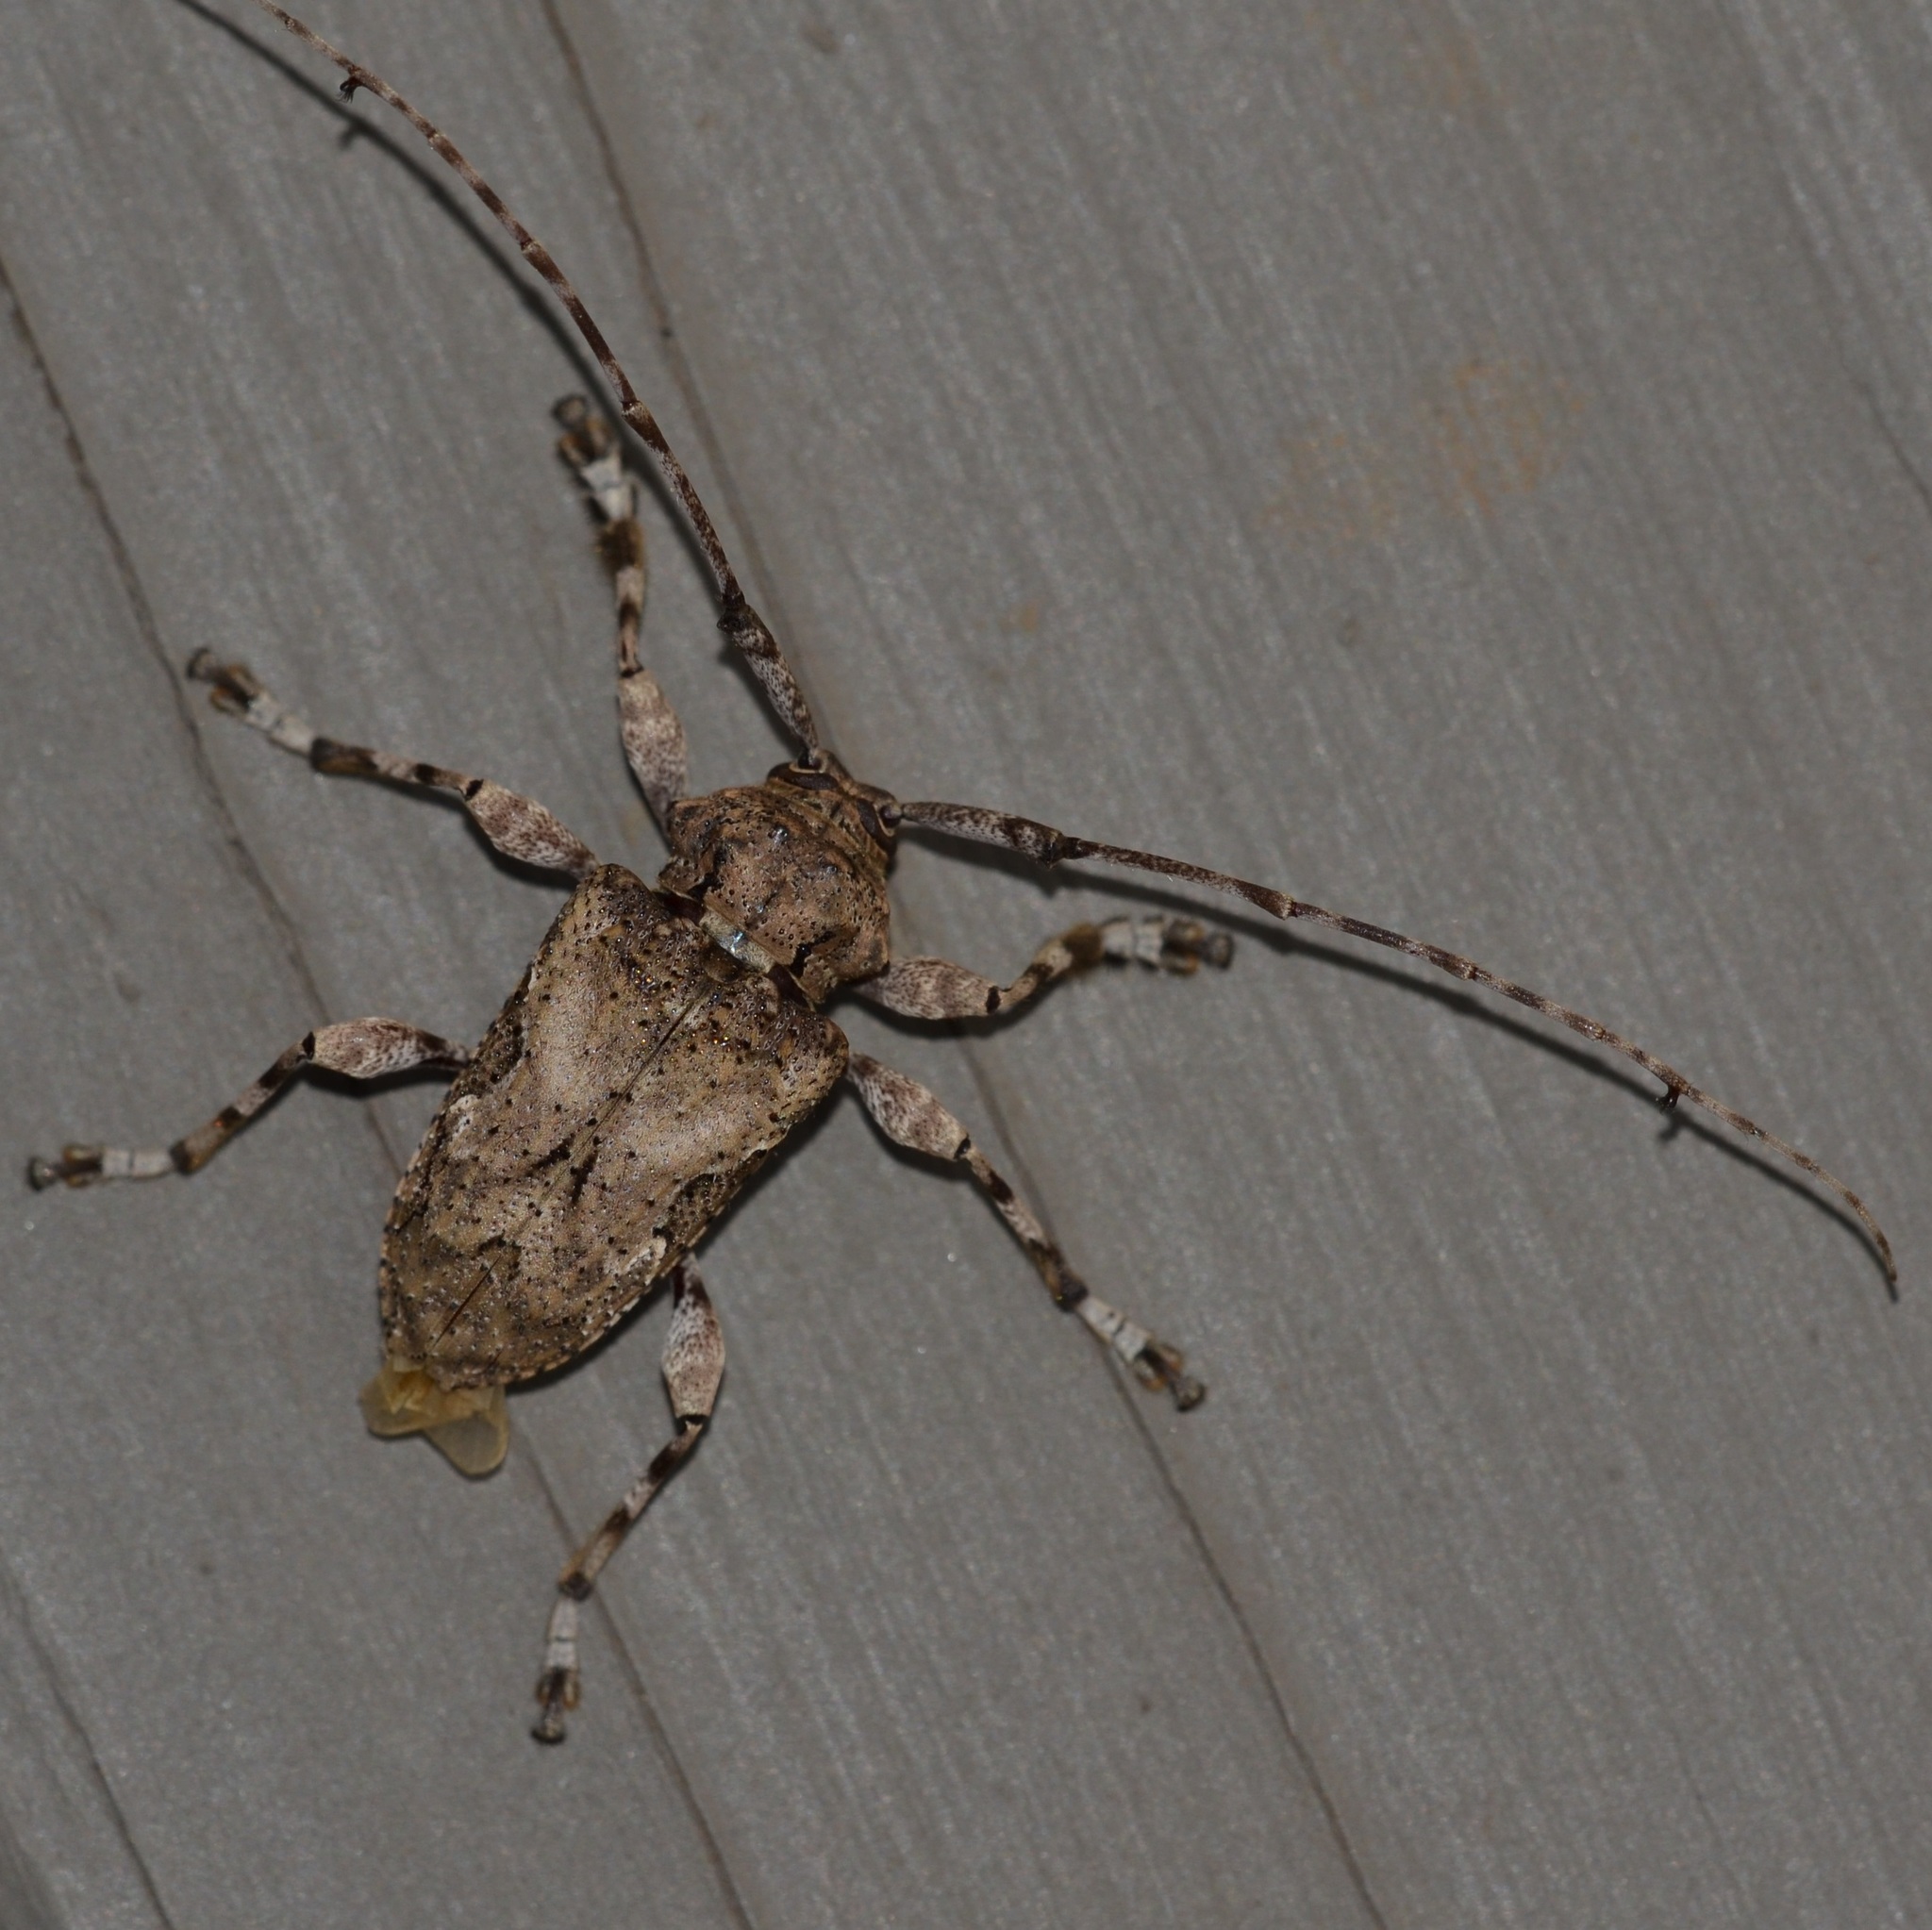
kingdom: Animalia
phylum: Arthropoda
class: Insecta
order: Coleoptera
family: Cerambycidae
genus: Lagocheirus
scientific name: Lagocheirus obsoletus
